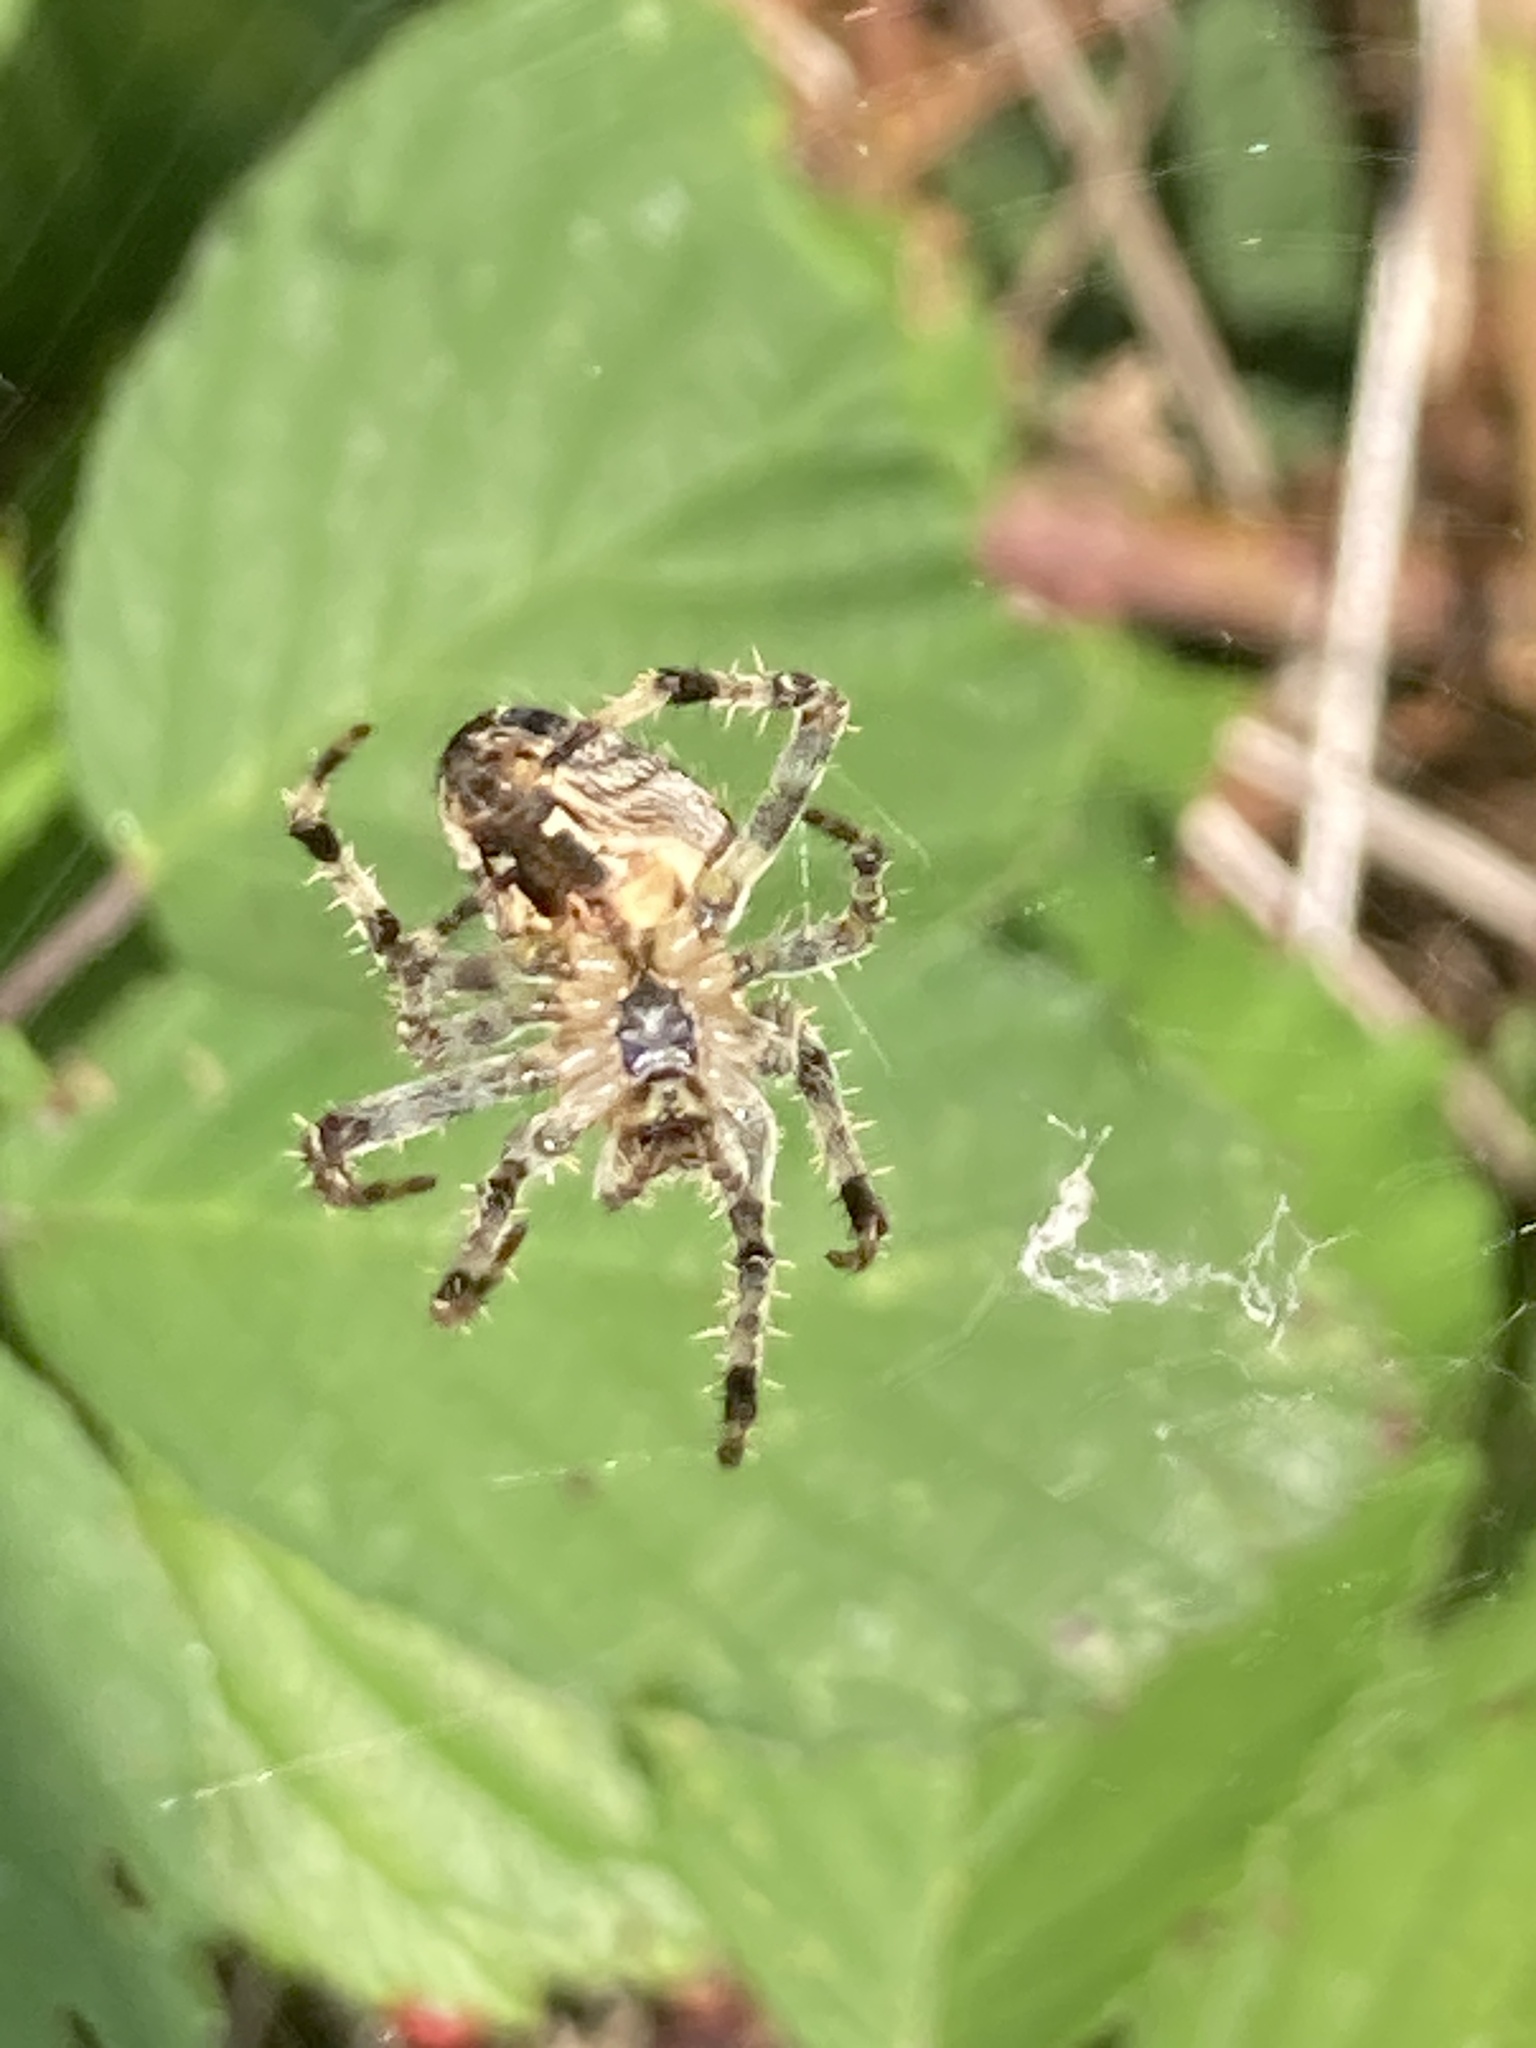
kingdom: Animalia
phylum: Arthropoda
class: Arachnida
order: Araneae
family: Araneidae
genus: Araneus
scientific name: Araneus diadematus
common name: Cross orbweaver
